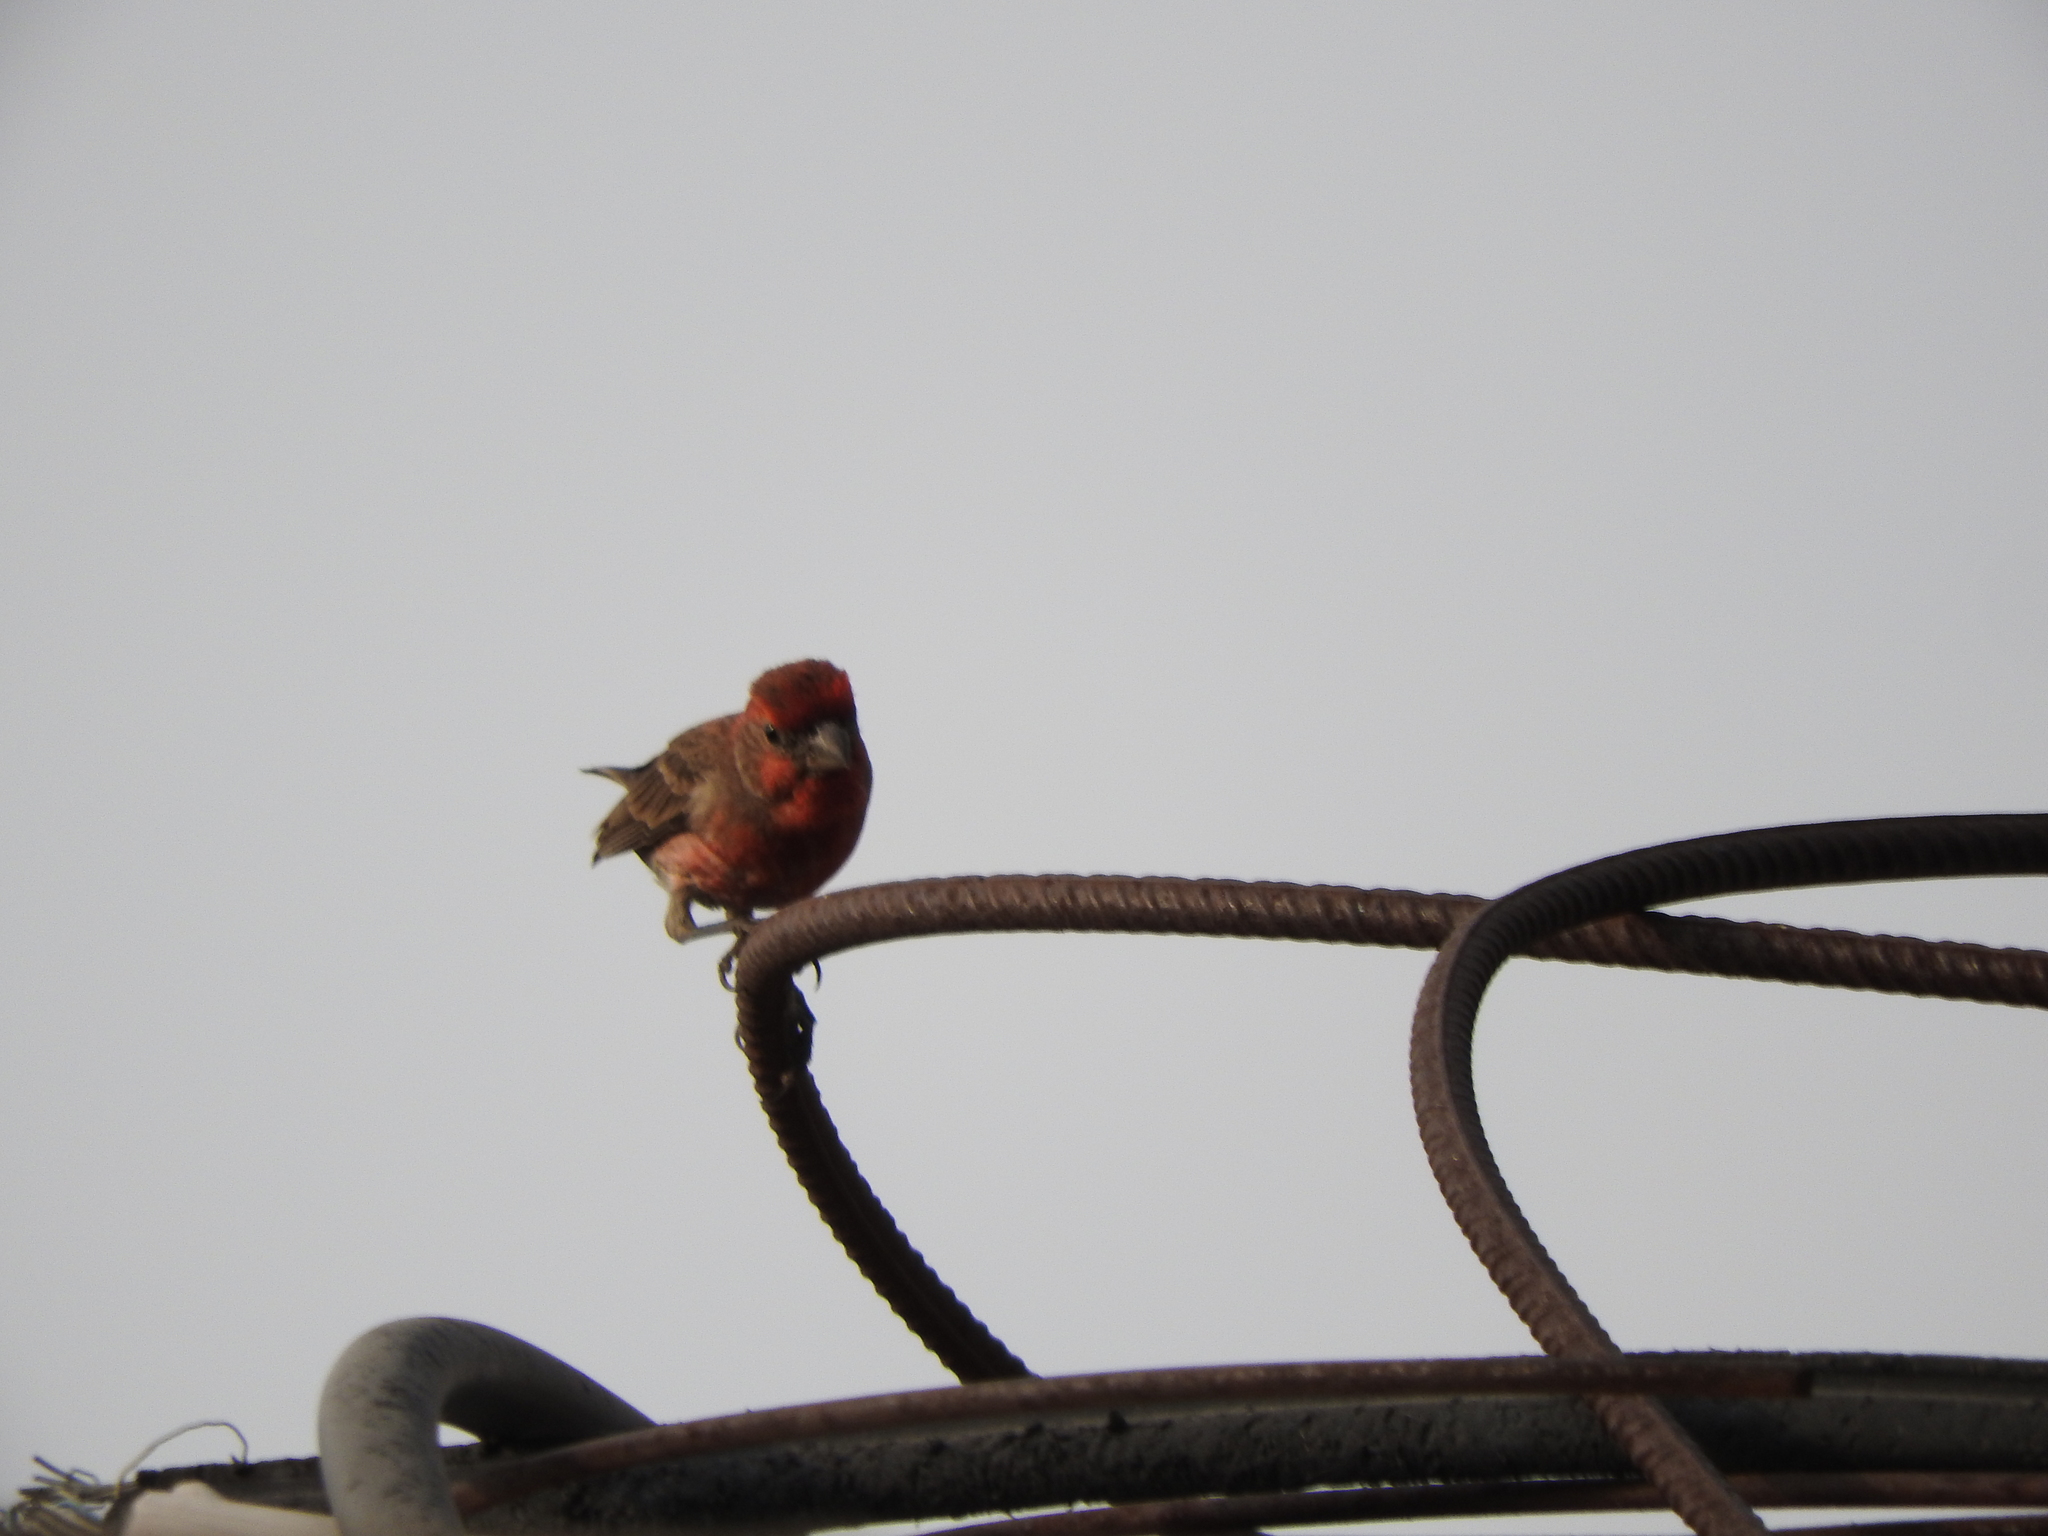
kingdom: Animalia
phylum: Chordata
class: Aves
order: Passeriformes
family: Fringillidae
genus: Haemorhous
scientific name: Haemorhous mexicanus
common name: House finch
